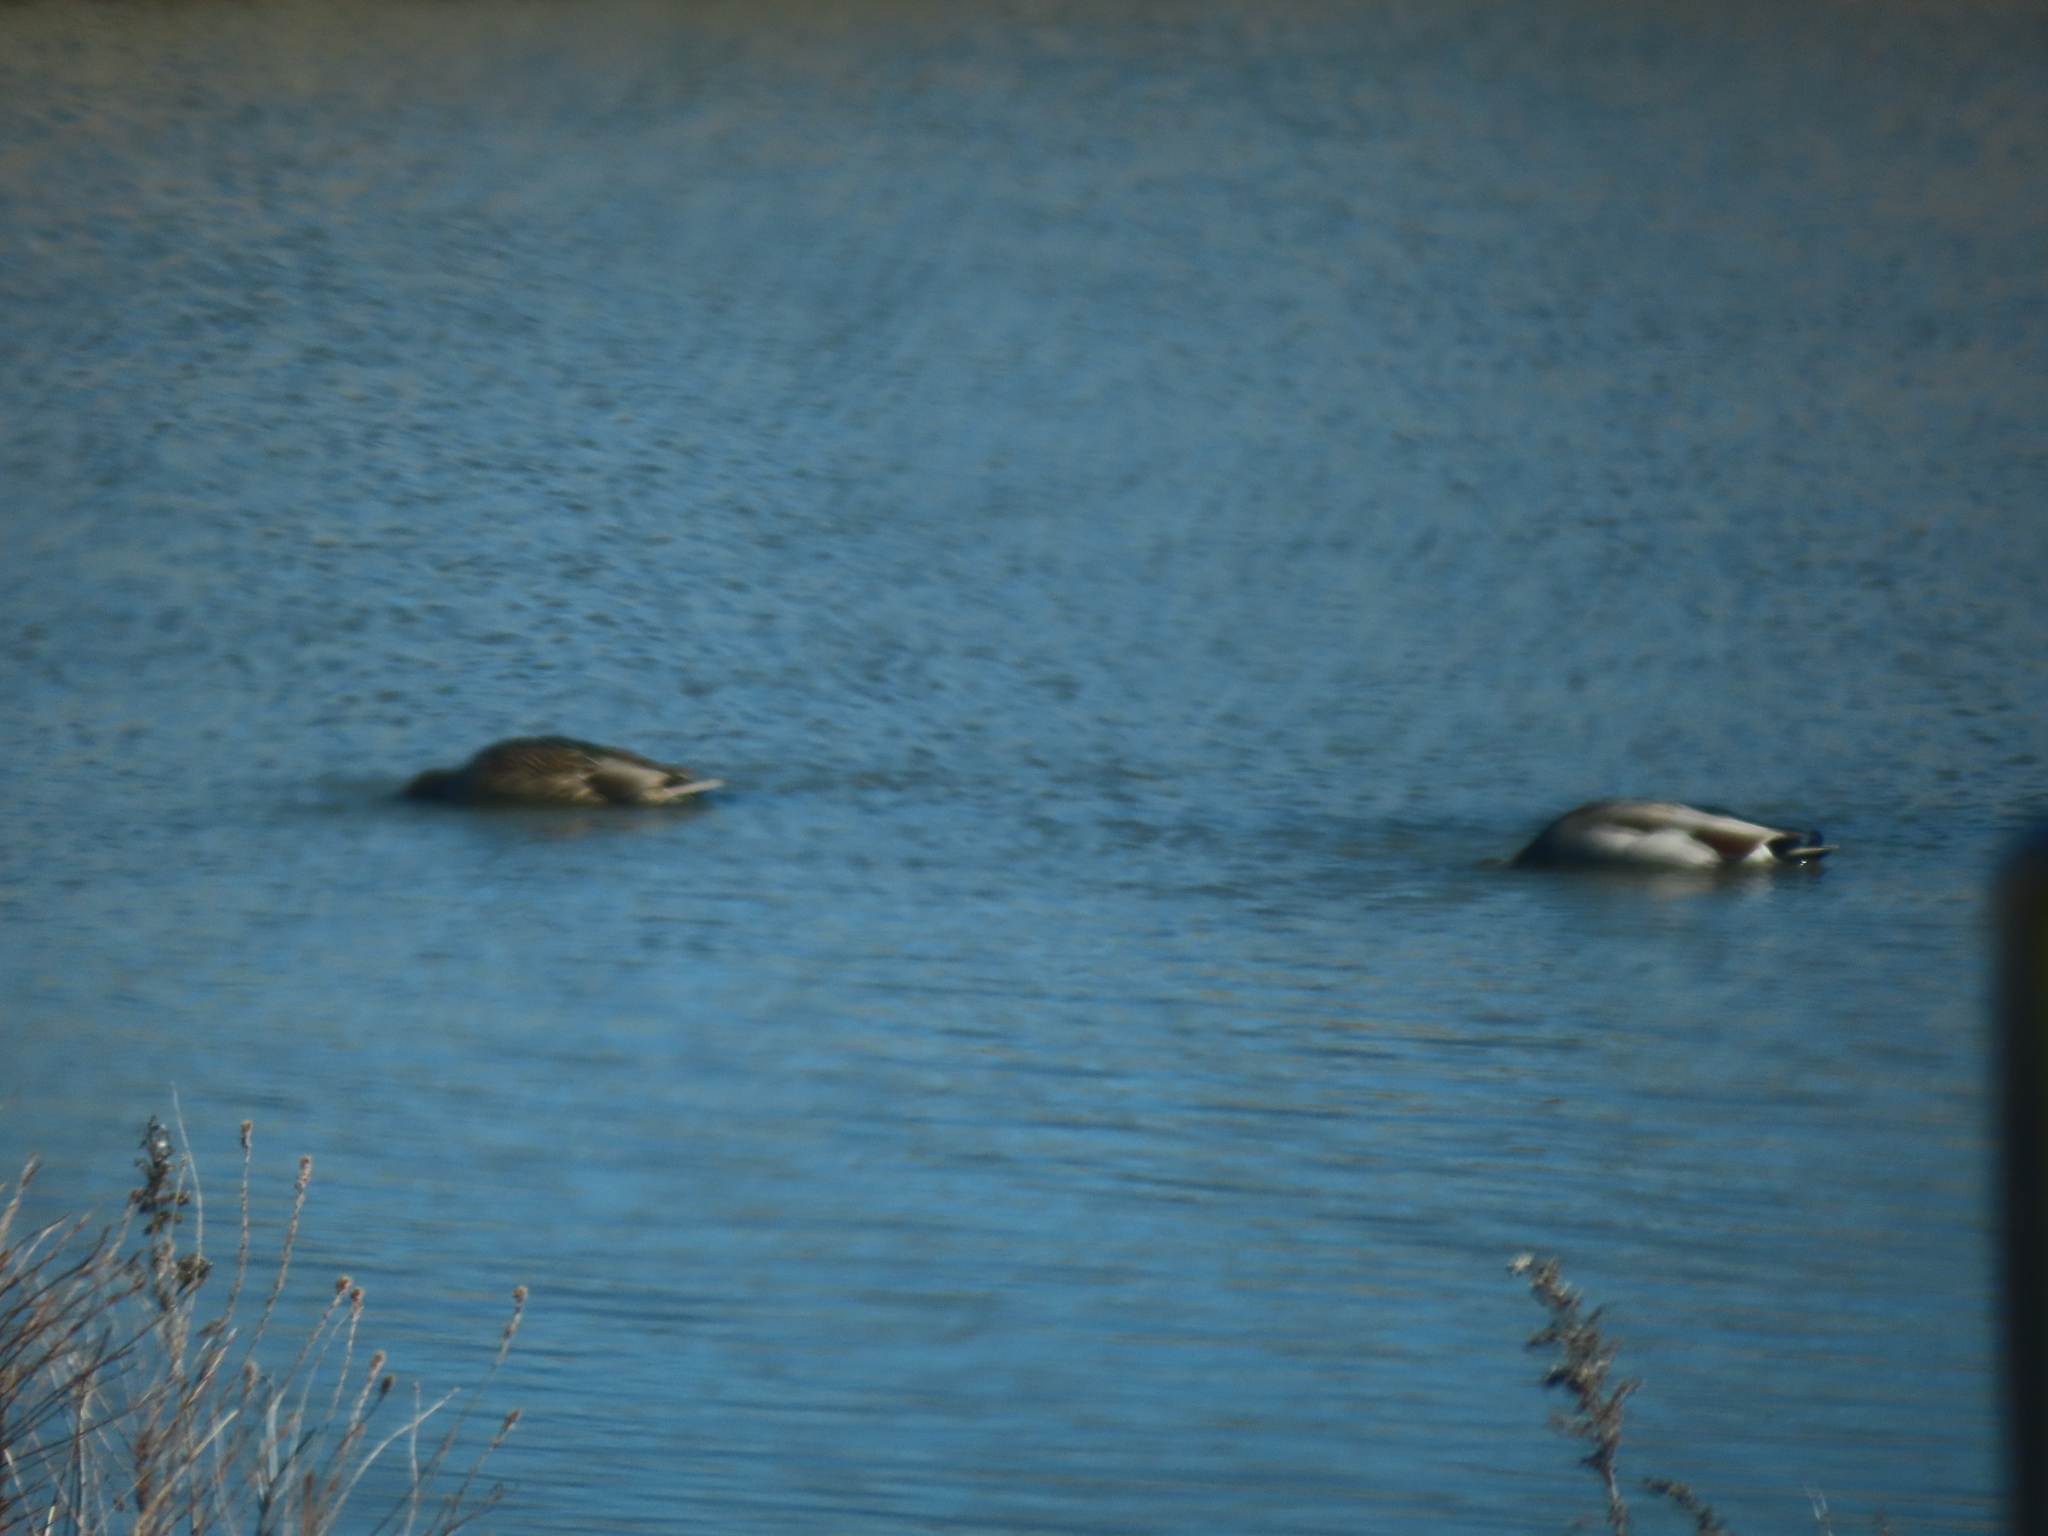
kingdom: Animalia
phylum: Chordata
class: Aves
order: Anseriformes
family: Anatidae
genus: Anas
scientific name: Anas platyrhynchos
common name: Mallard
